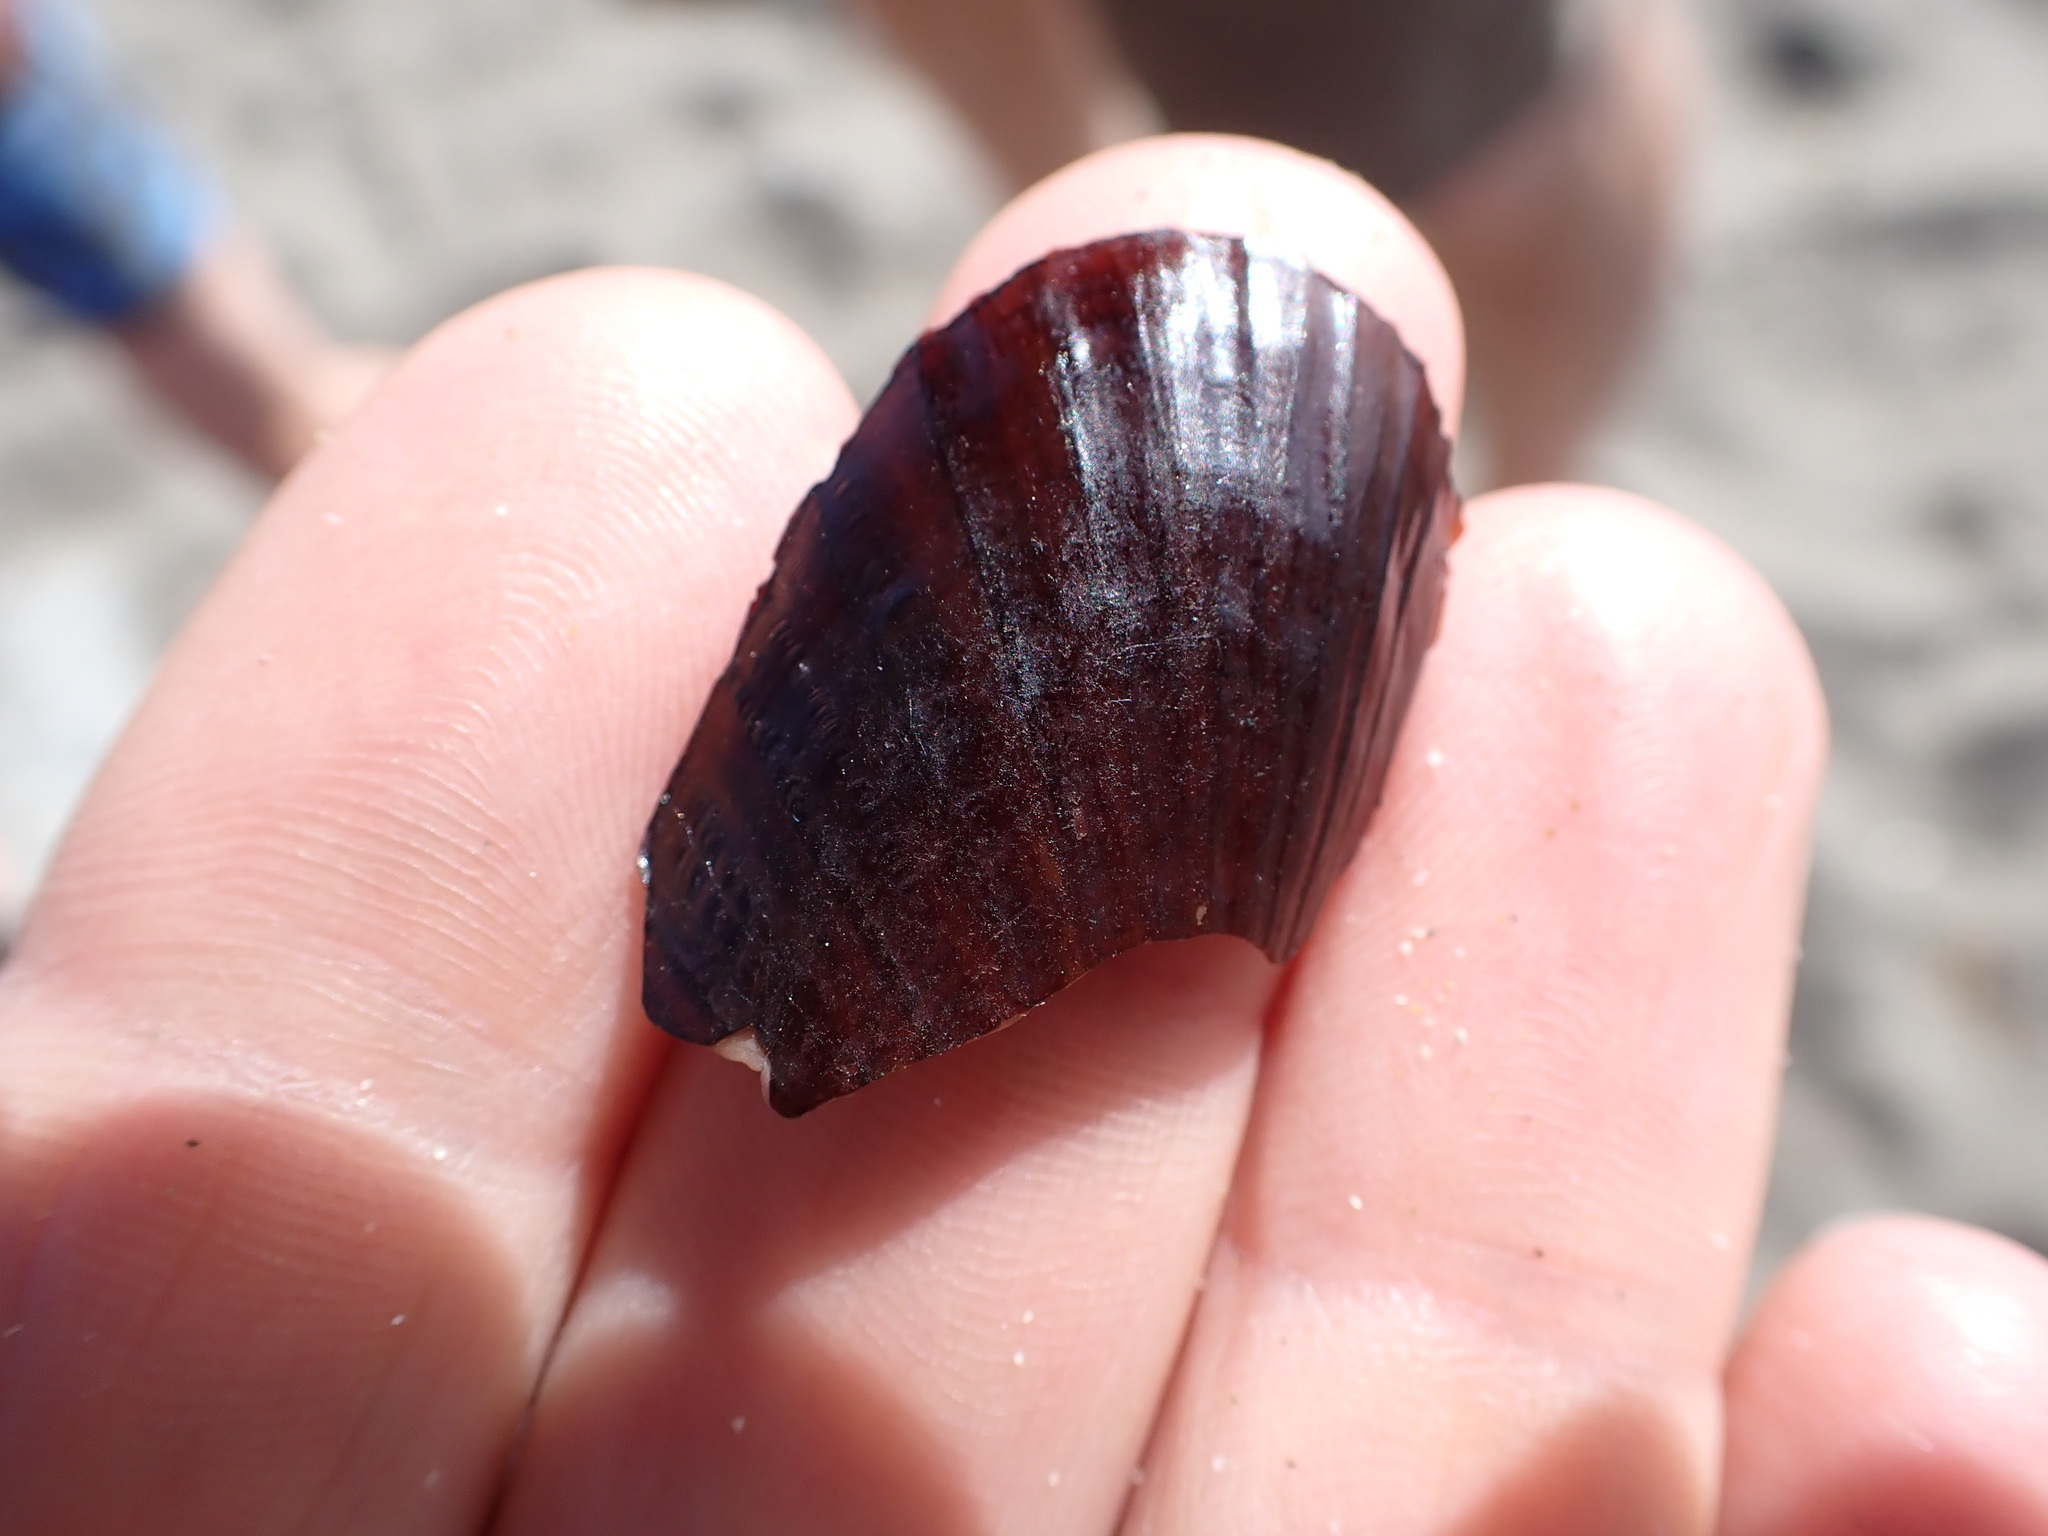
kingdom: Animalia
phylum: Mollusca
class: Bivalvia
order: Solemyida
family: Solemyidae
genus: Solemya
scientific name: Solemya parkinsonii
